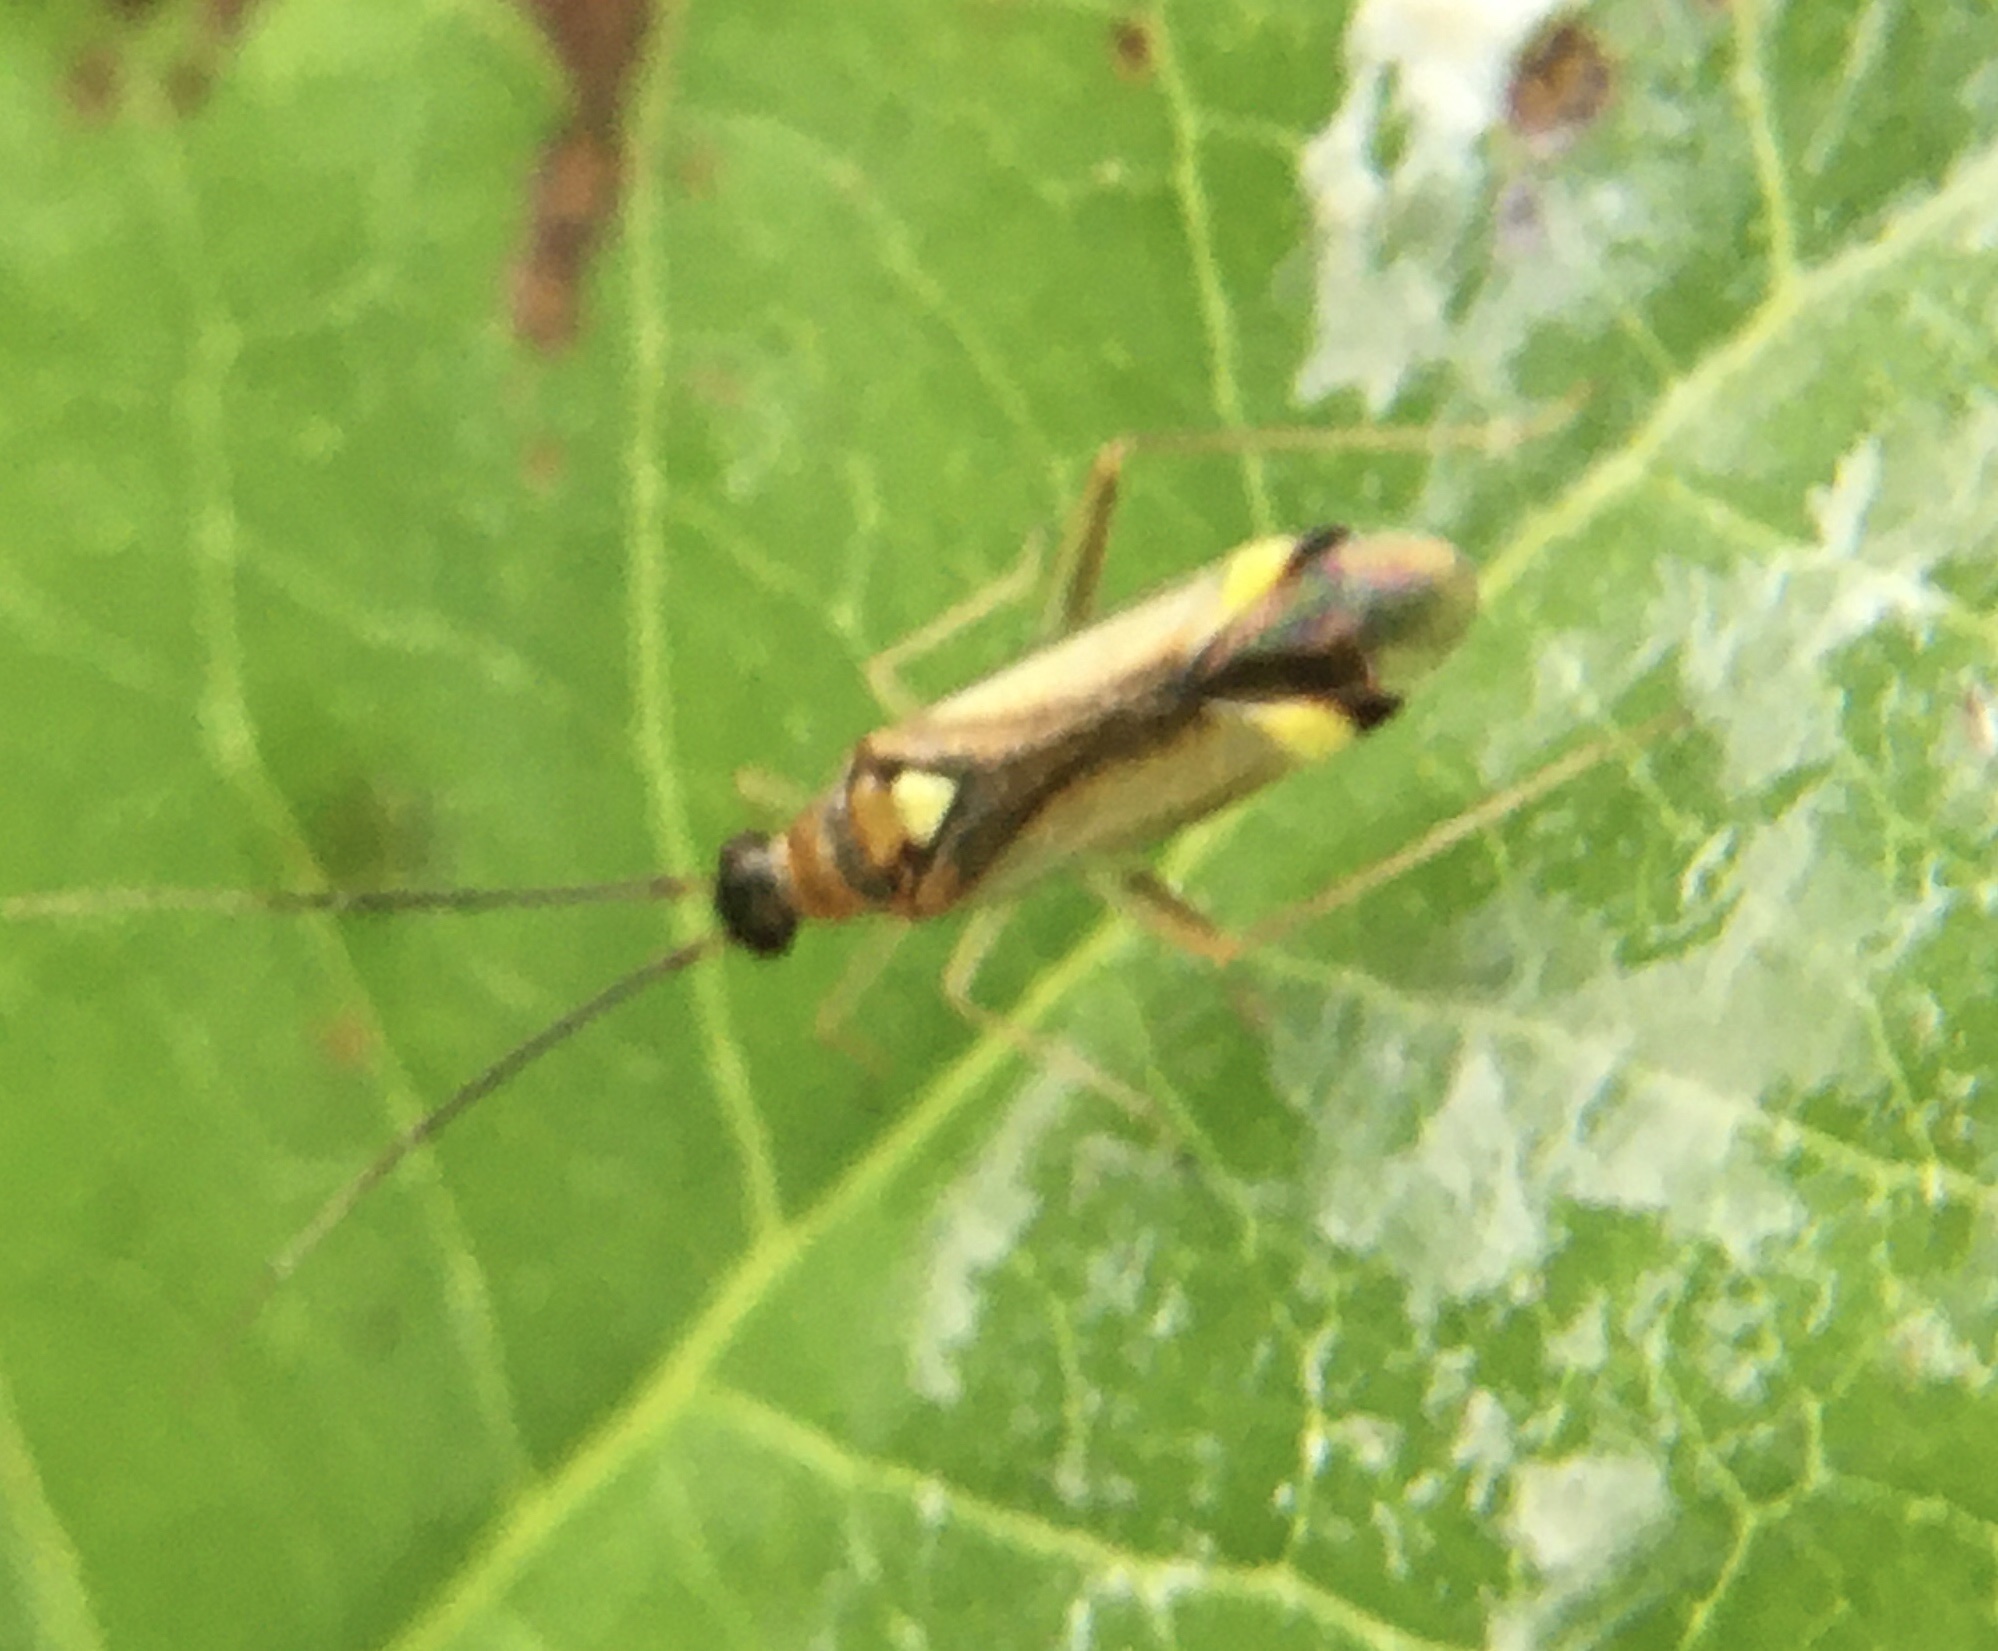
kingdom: Animalia
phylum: Arthropoda
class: Insecta
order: Hemiptera
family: Miridae
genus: Campyloneura
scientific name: Campyloneura virgula
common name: Predatory bug
